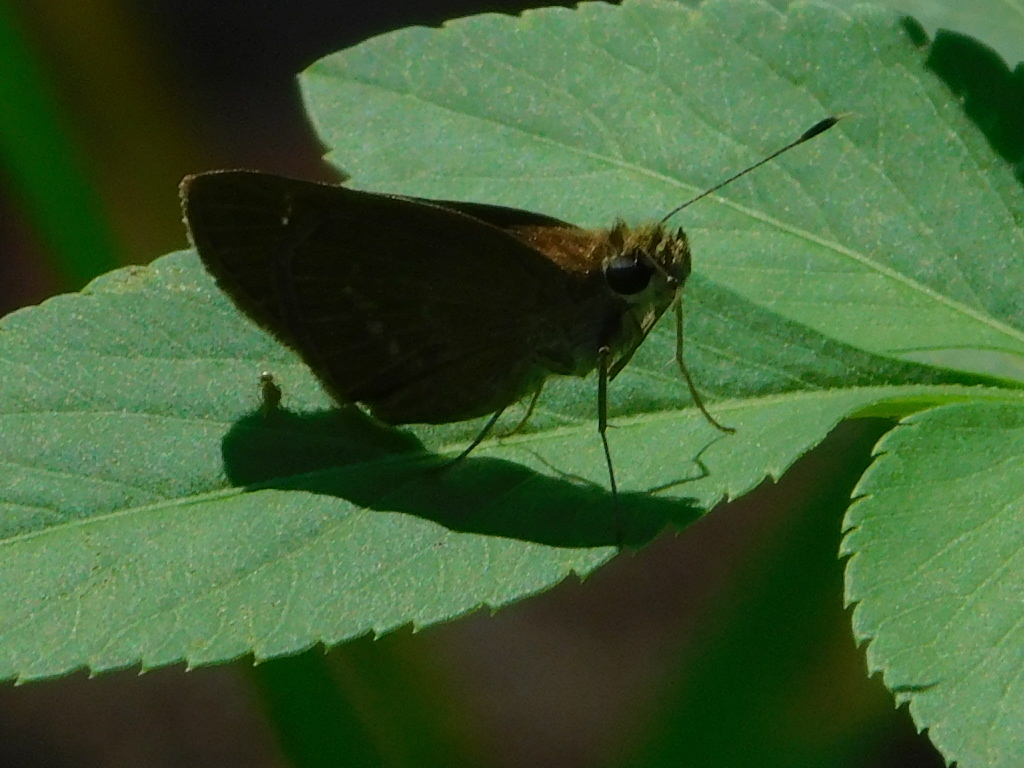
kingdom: Animalia
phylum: Arthropoda
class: Insecta
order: Lepidoptera
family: Hesperiidae
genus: Cymaenes
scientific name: Cymaenes tripunctus
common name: Dingy dotted skipper
